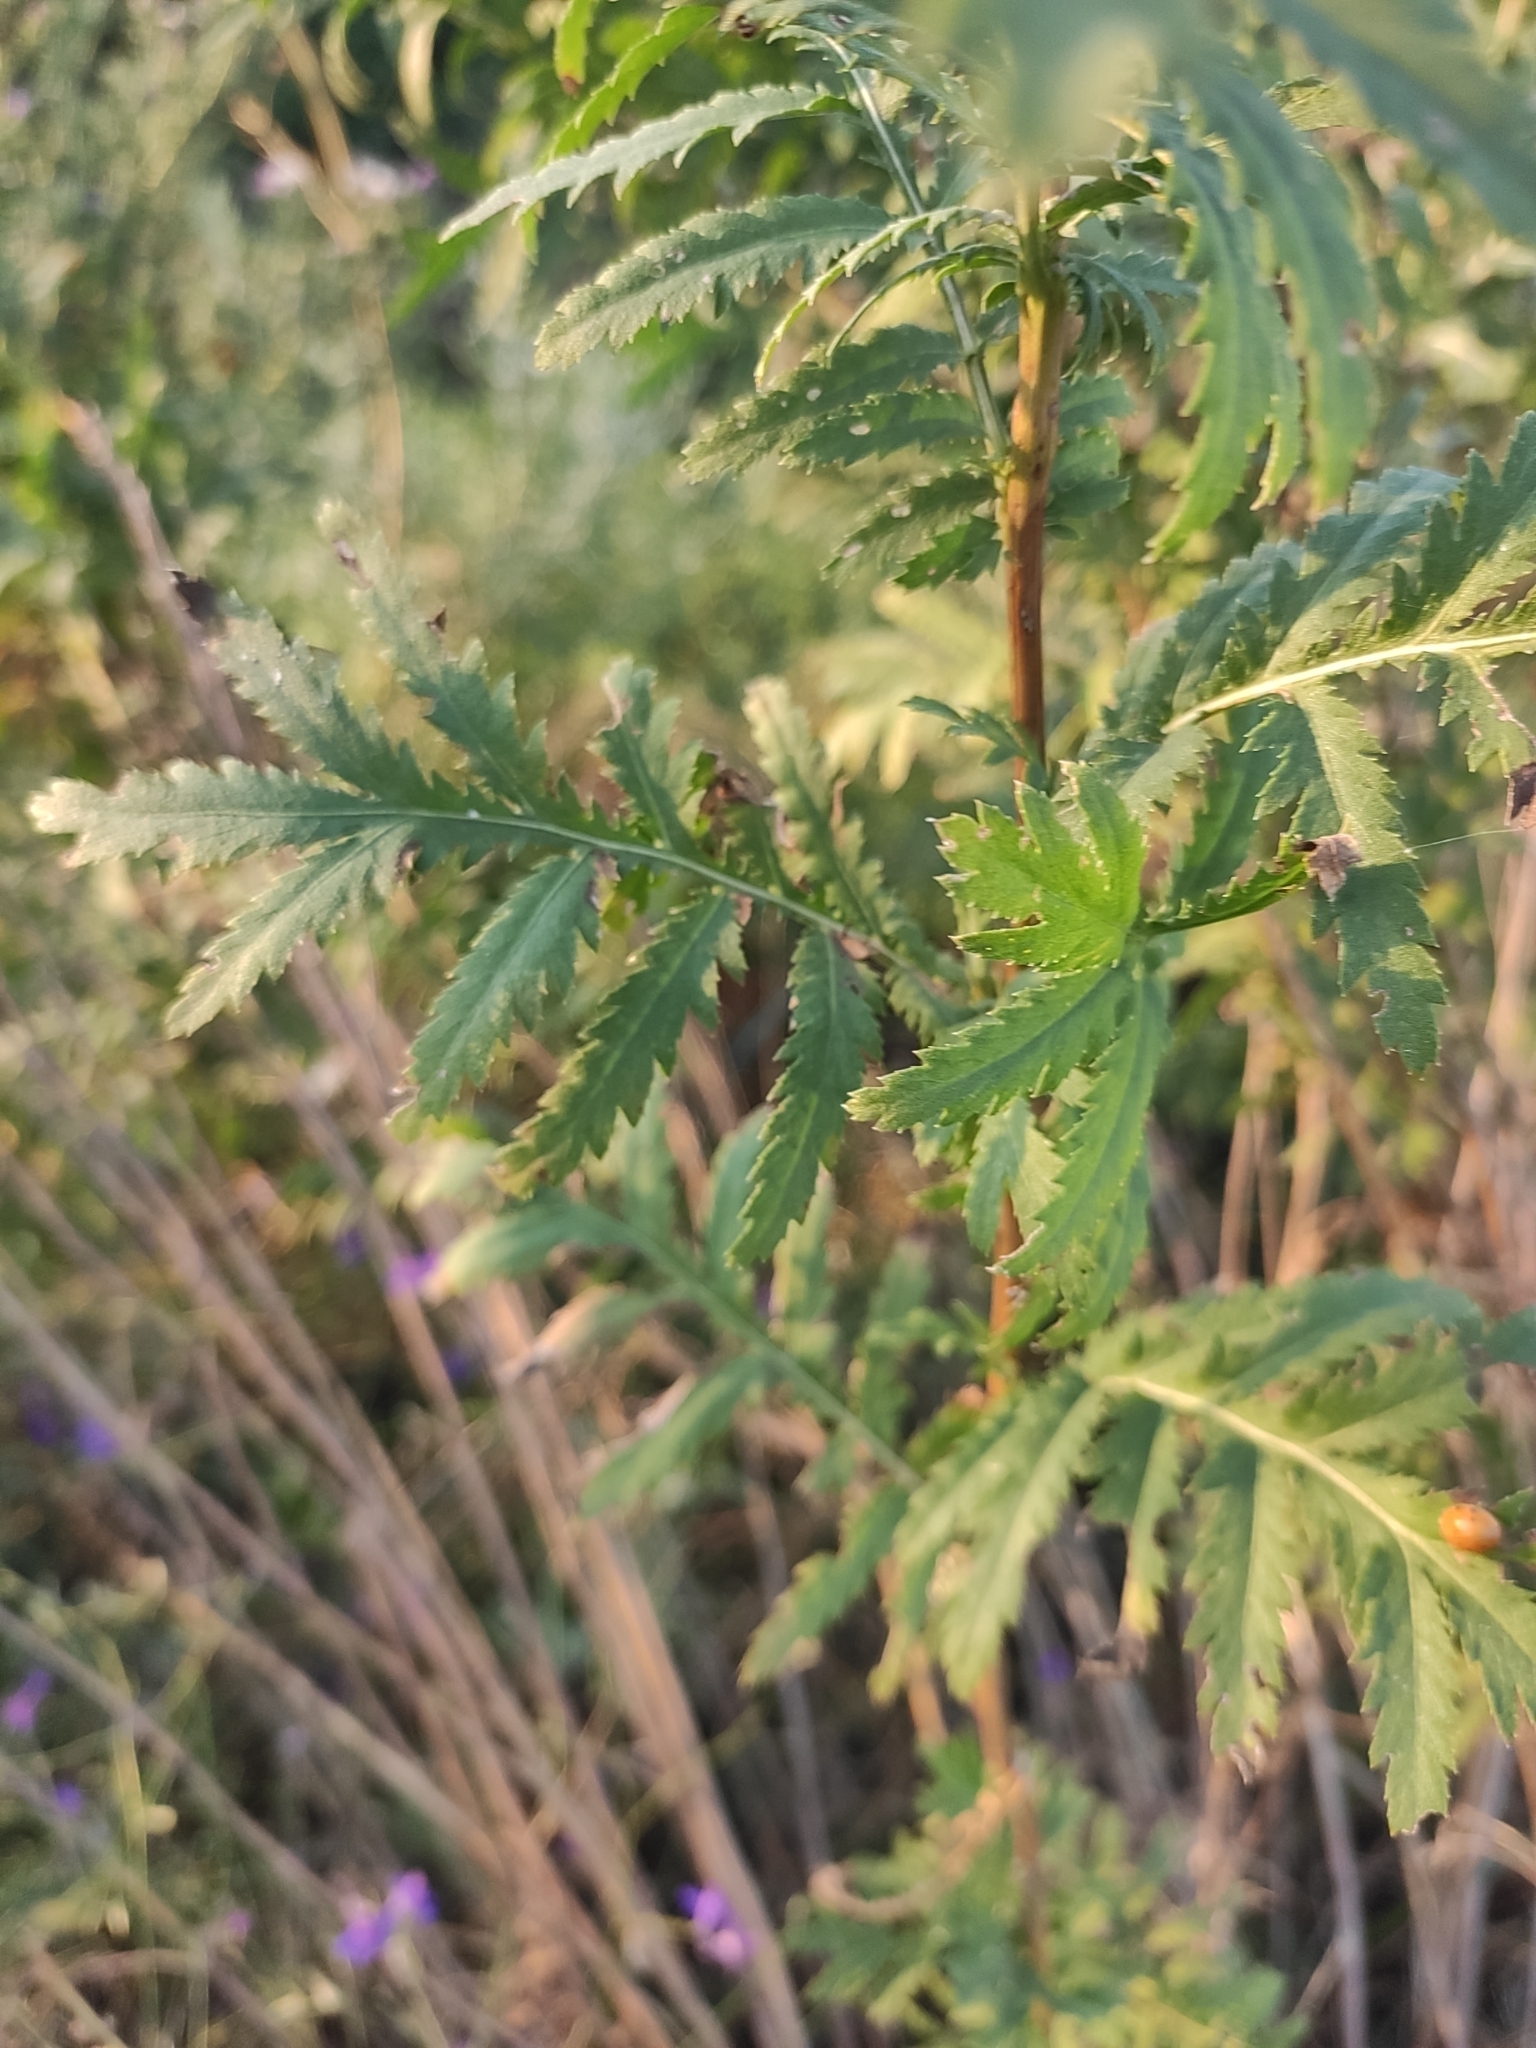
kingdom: Plantae
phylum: Tracheophyta
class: Magnoliopsida
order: Asterales
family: Asteraceae
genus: Tanacetum
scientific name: Tanacetum vulgare
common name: Common tansy
